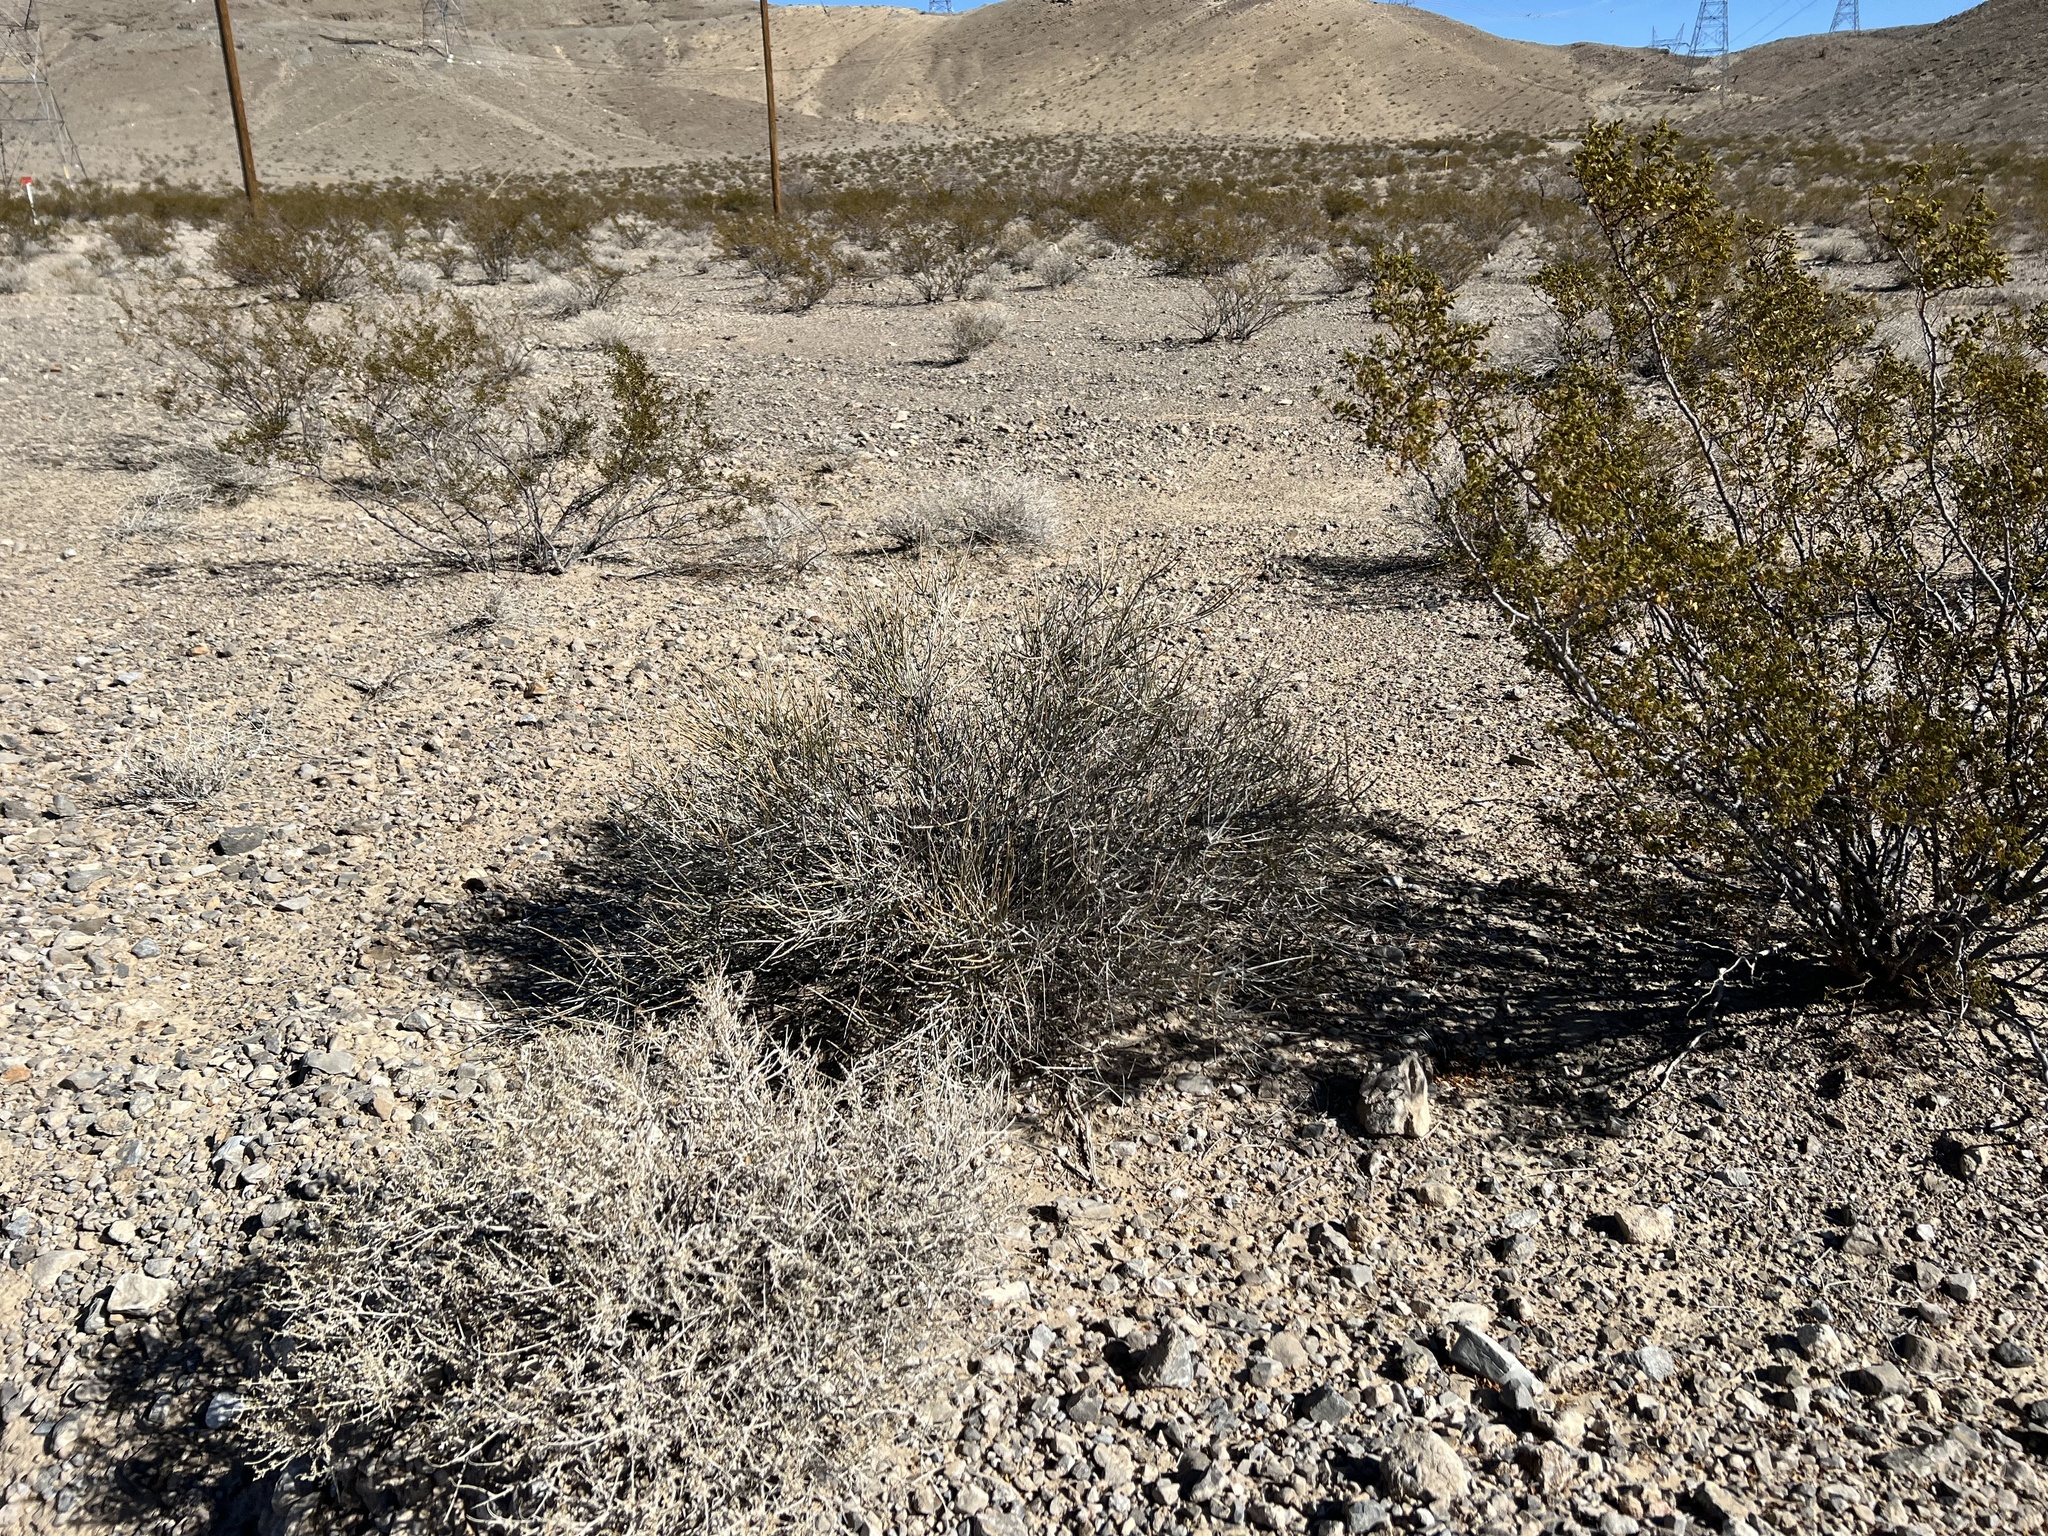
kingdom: Plantae
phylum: Tracheophyta
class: Gnetopsida
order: Ephedrales
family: Ephedraceae
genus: Ephedra
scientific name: Ephedra nevadensis
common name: Gray ephedra
